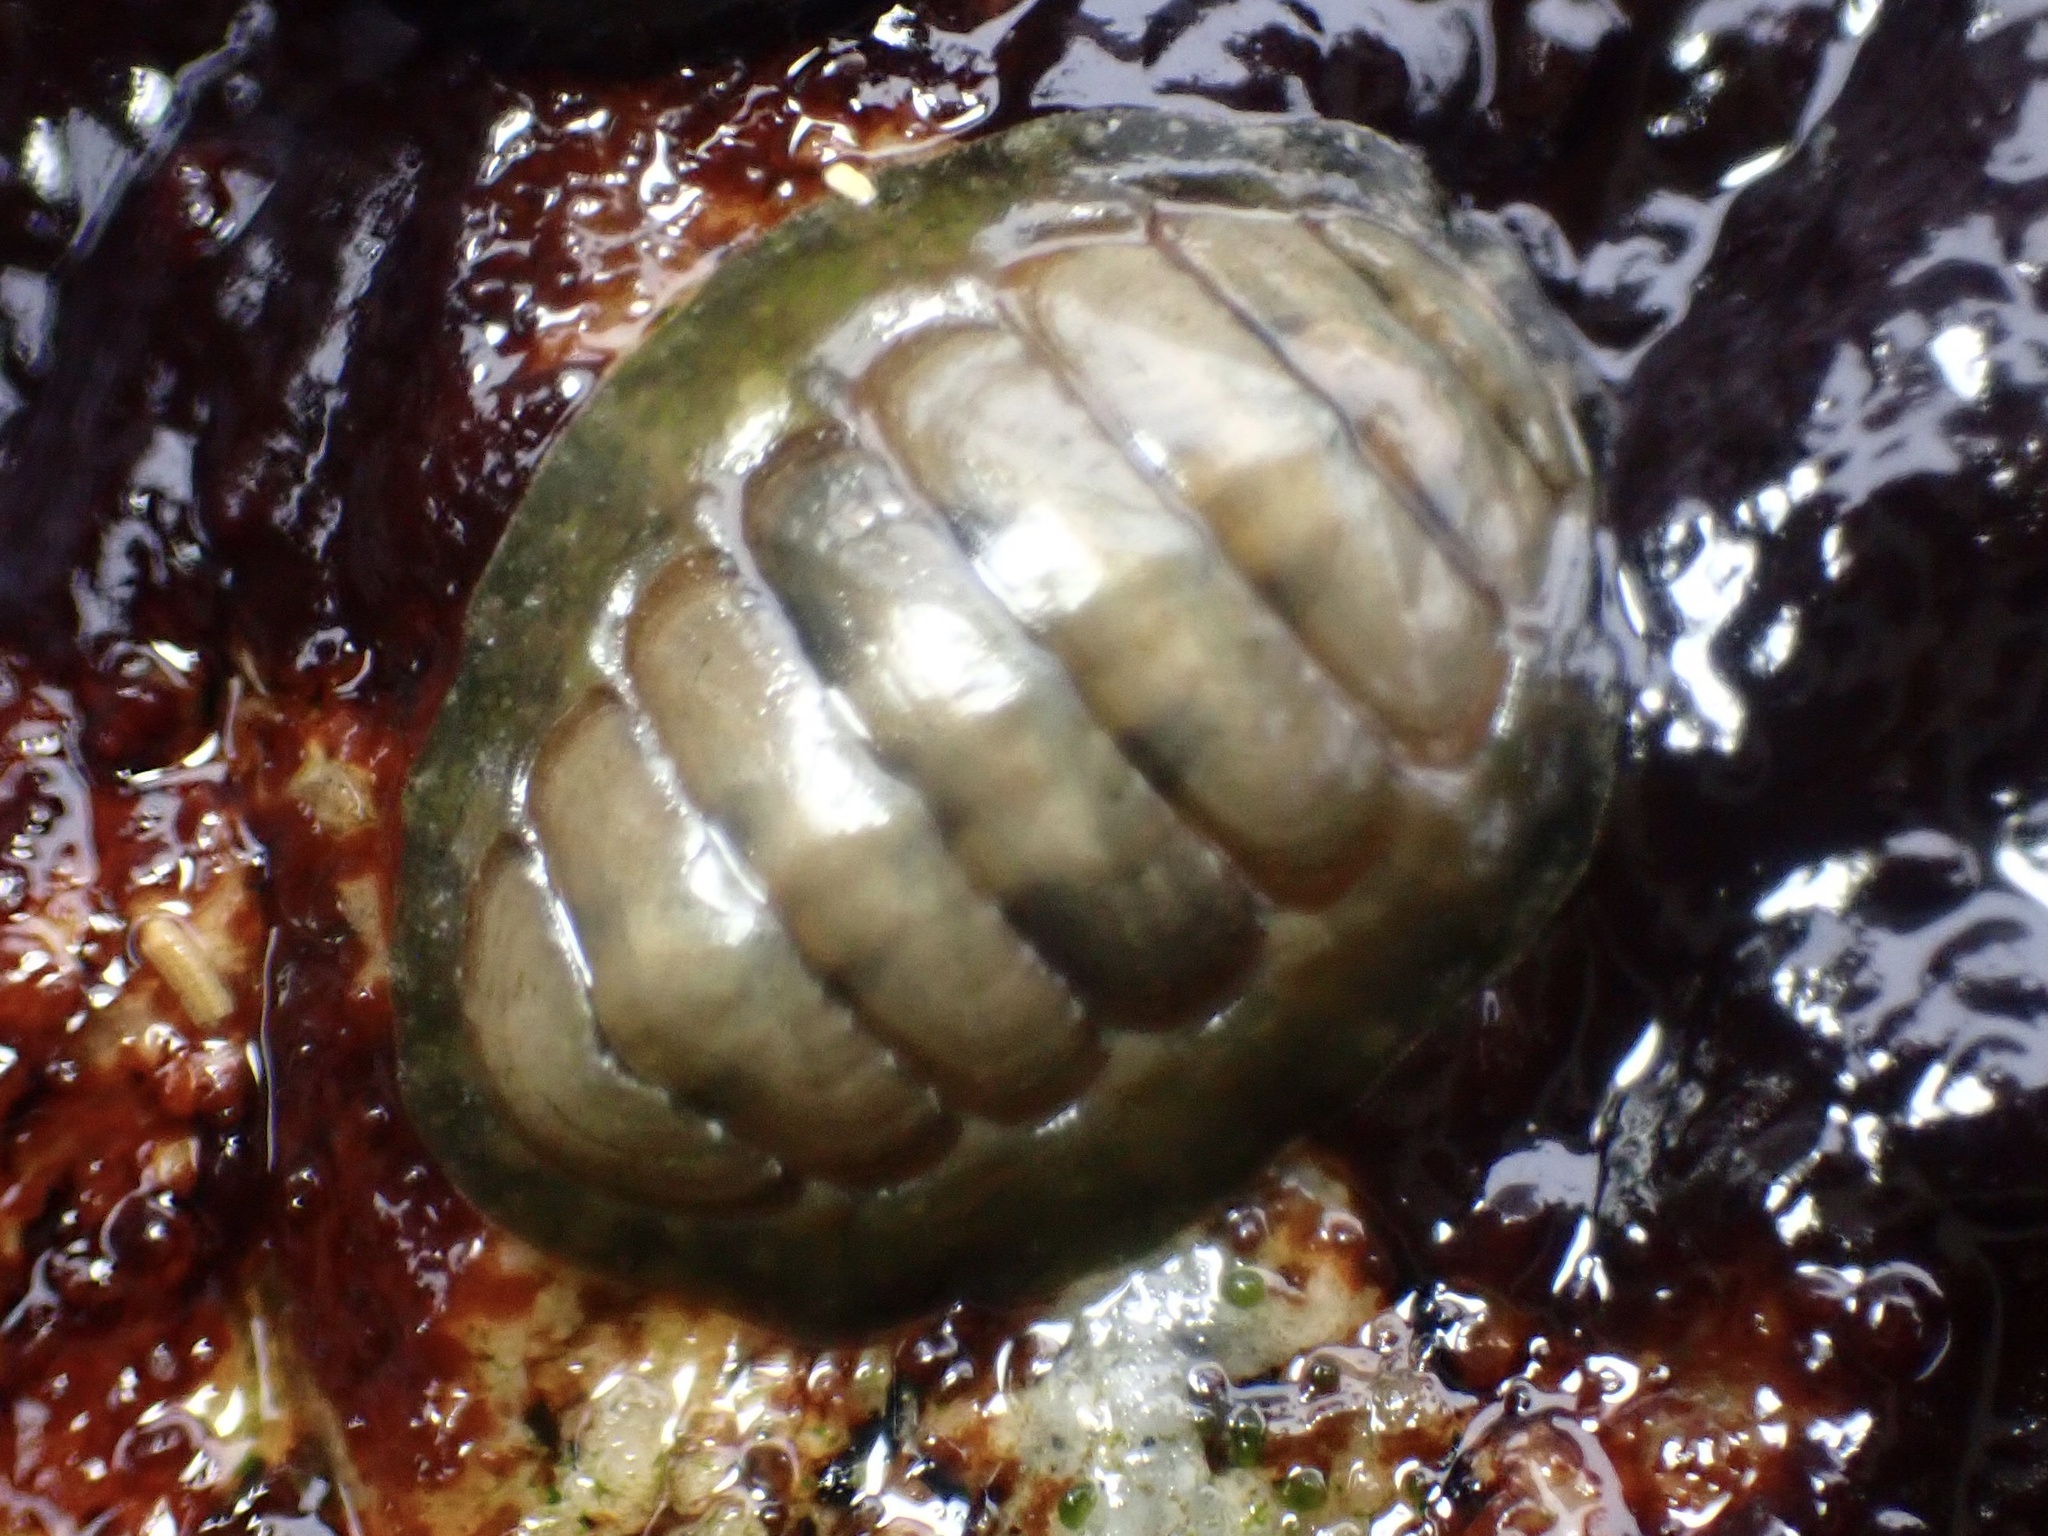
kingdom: Animalia
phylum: Mollusca
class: Polyplacophora
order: Chitonida
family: Tonicellidae
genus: Cyanoplax
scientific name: Cyanoplax hartwegii
